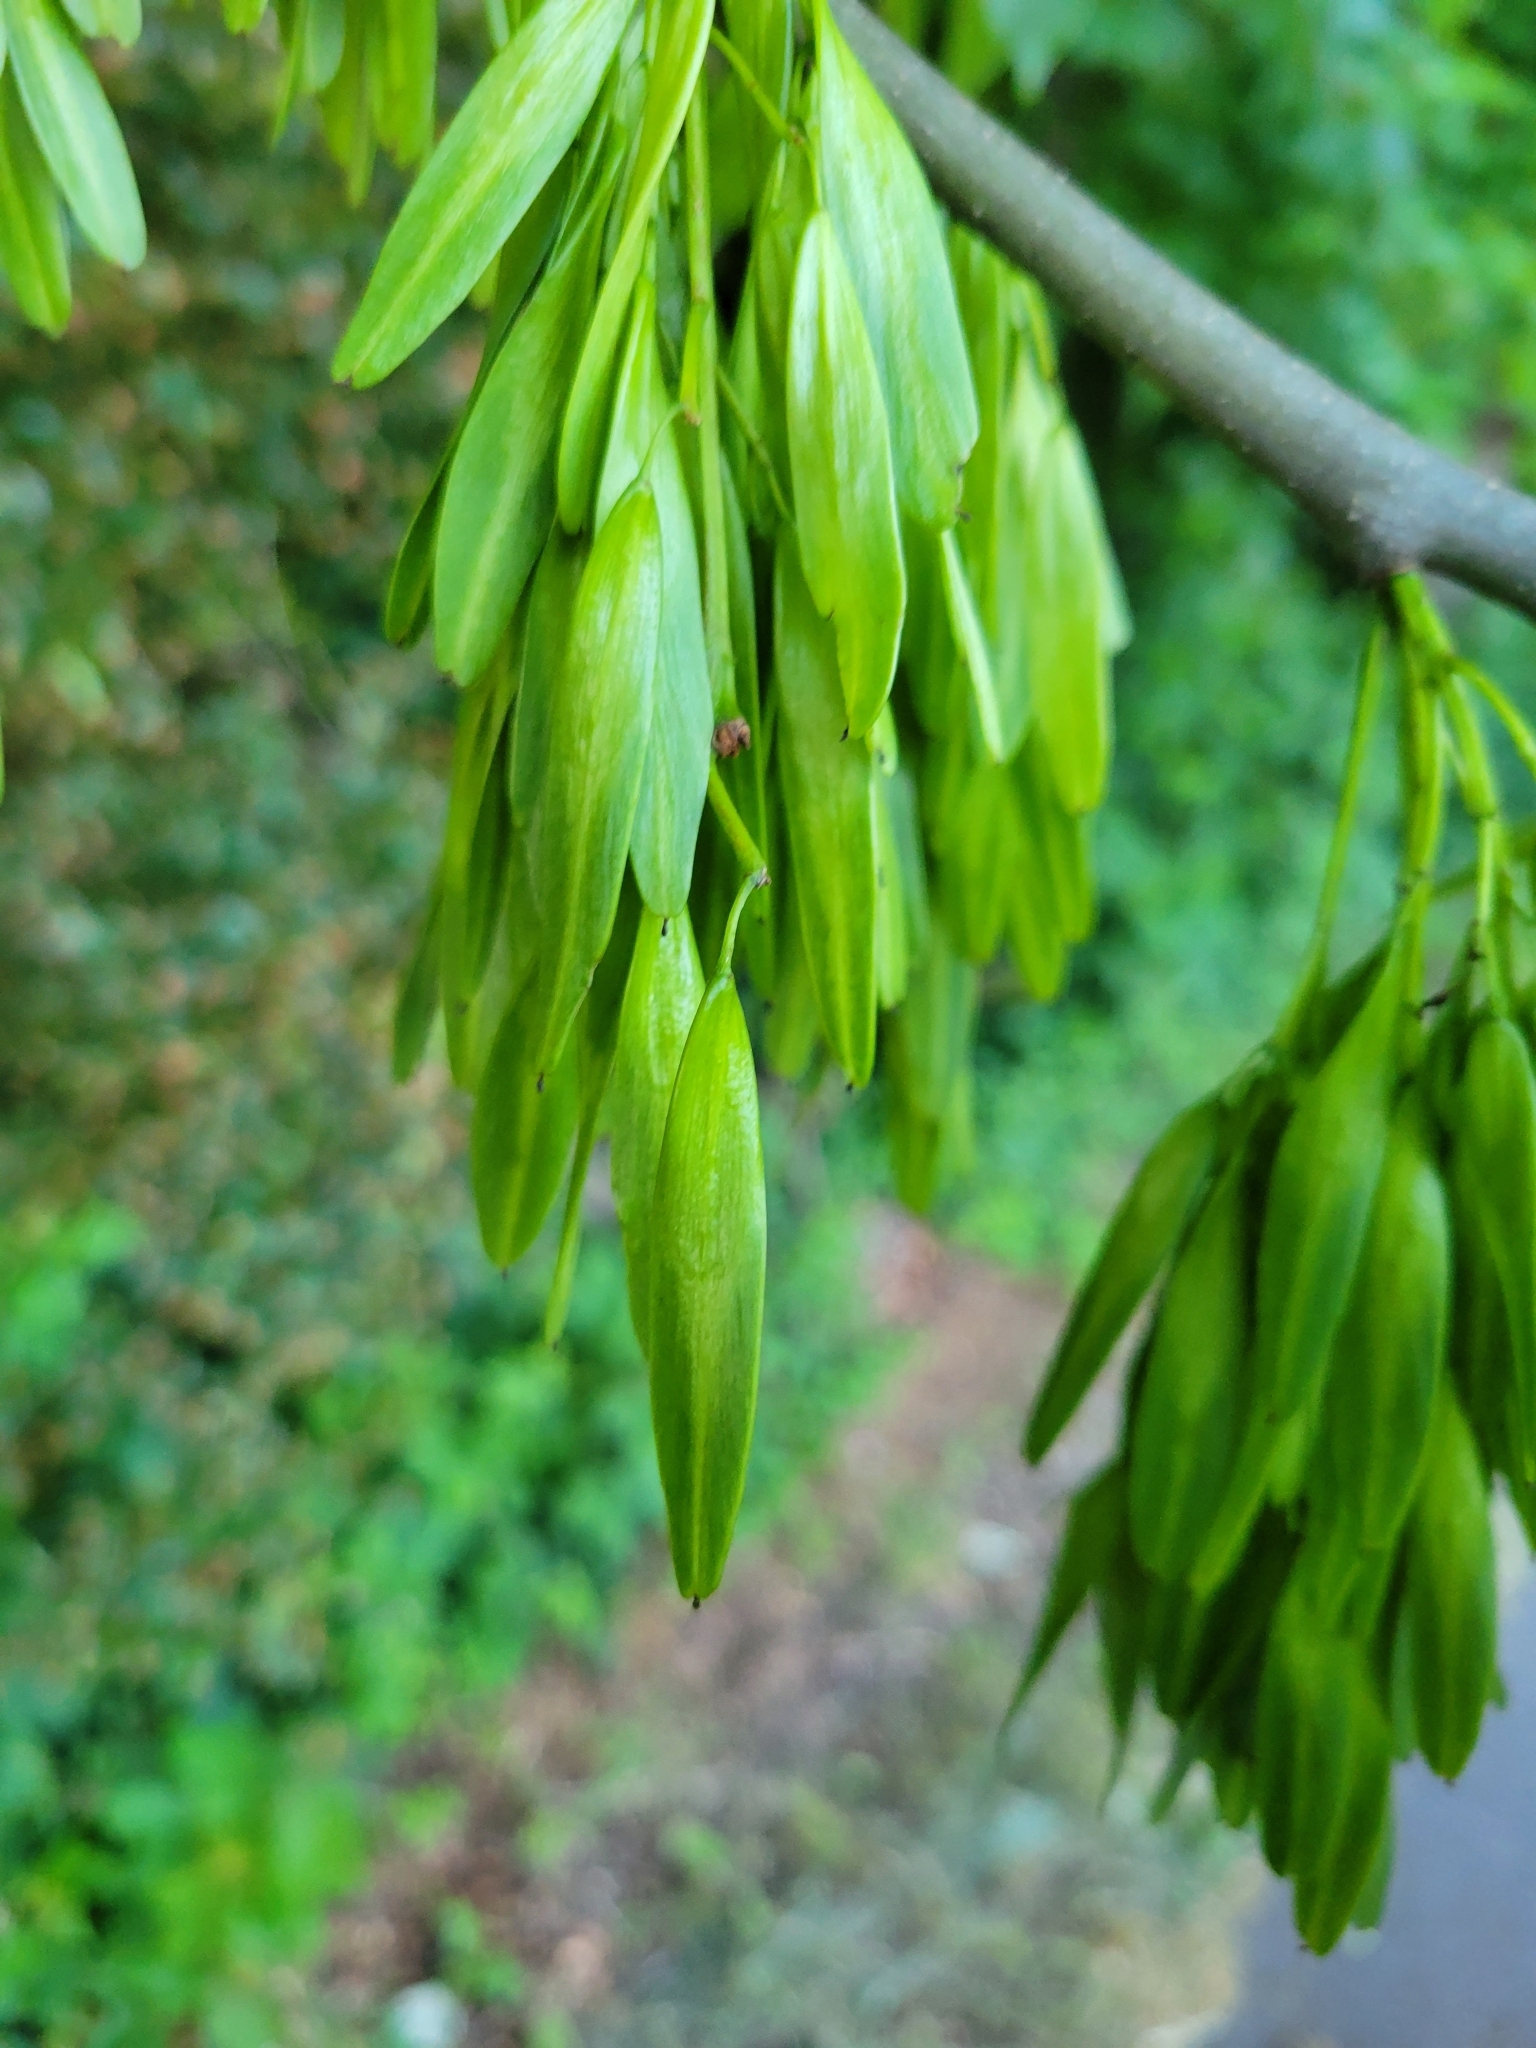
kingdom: Plantae
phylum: Tracheophyta
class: Magnoliopsida
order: Lamiales
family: Oleaceae
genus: Fraxinus
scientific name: Fraxinus excelsior
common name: European ash
